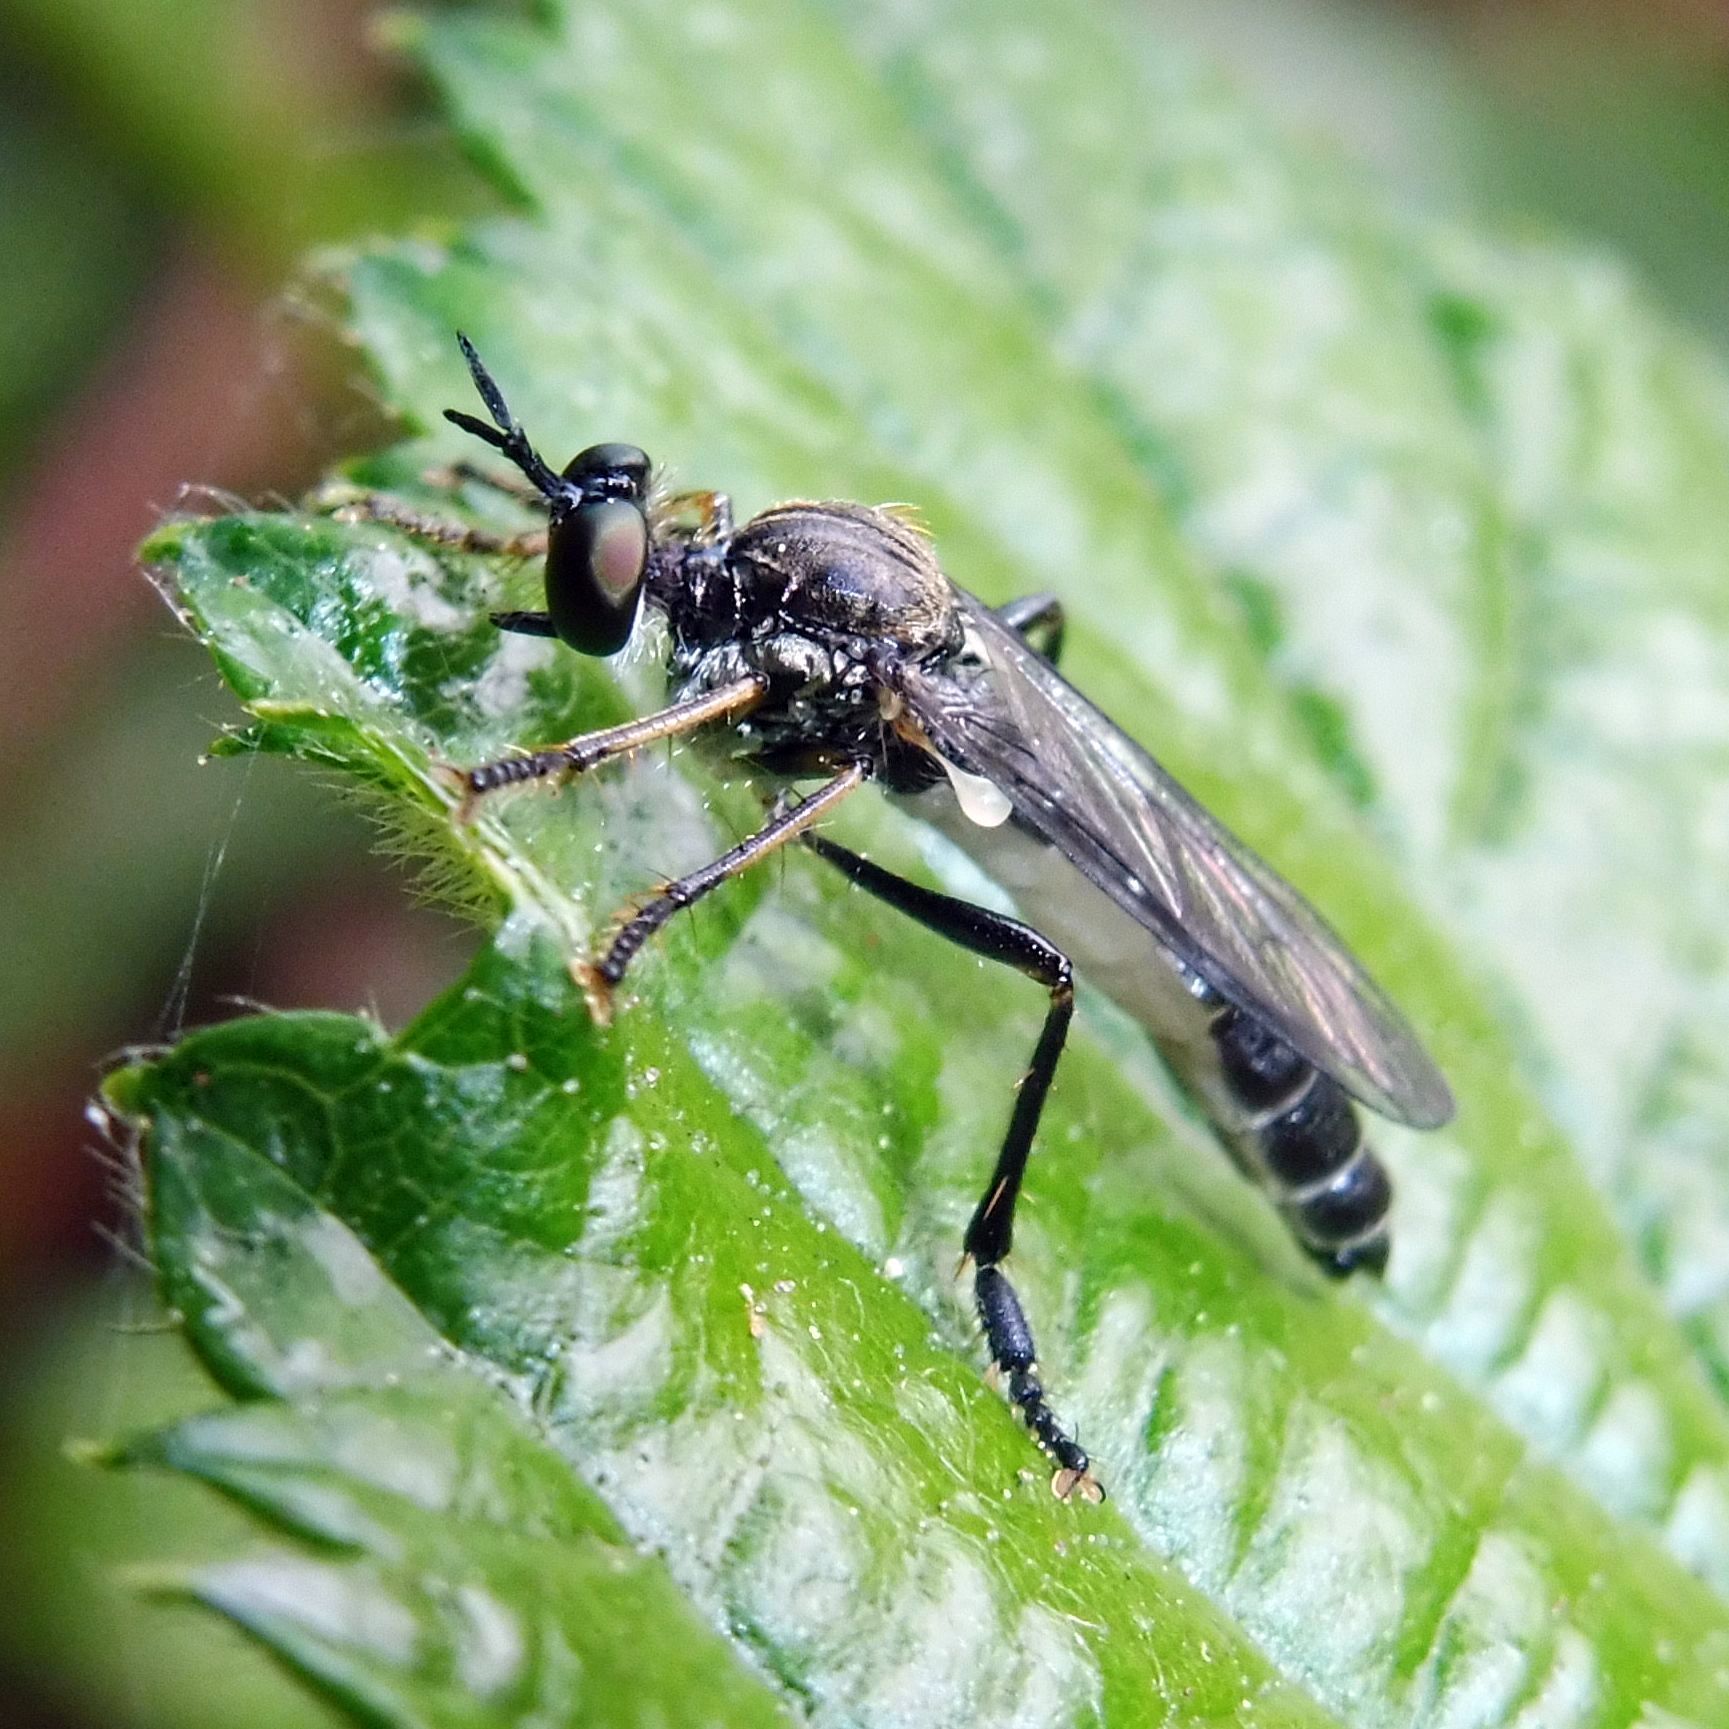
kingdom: Animalia
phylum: Arthropoda
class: Insecta
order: Diptera
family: Asilidae
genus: Dioctria
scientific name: Dioctria hyalipennis
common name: Stripe-legged robberfly
